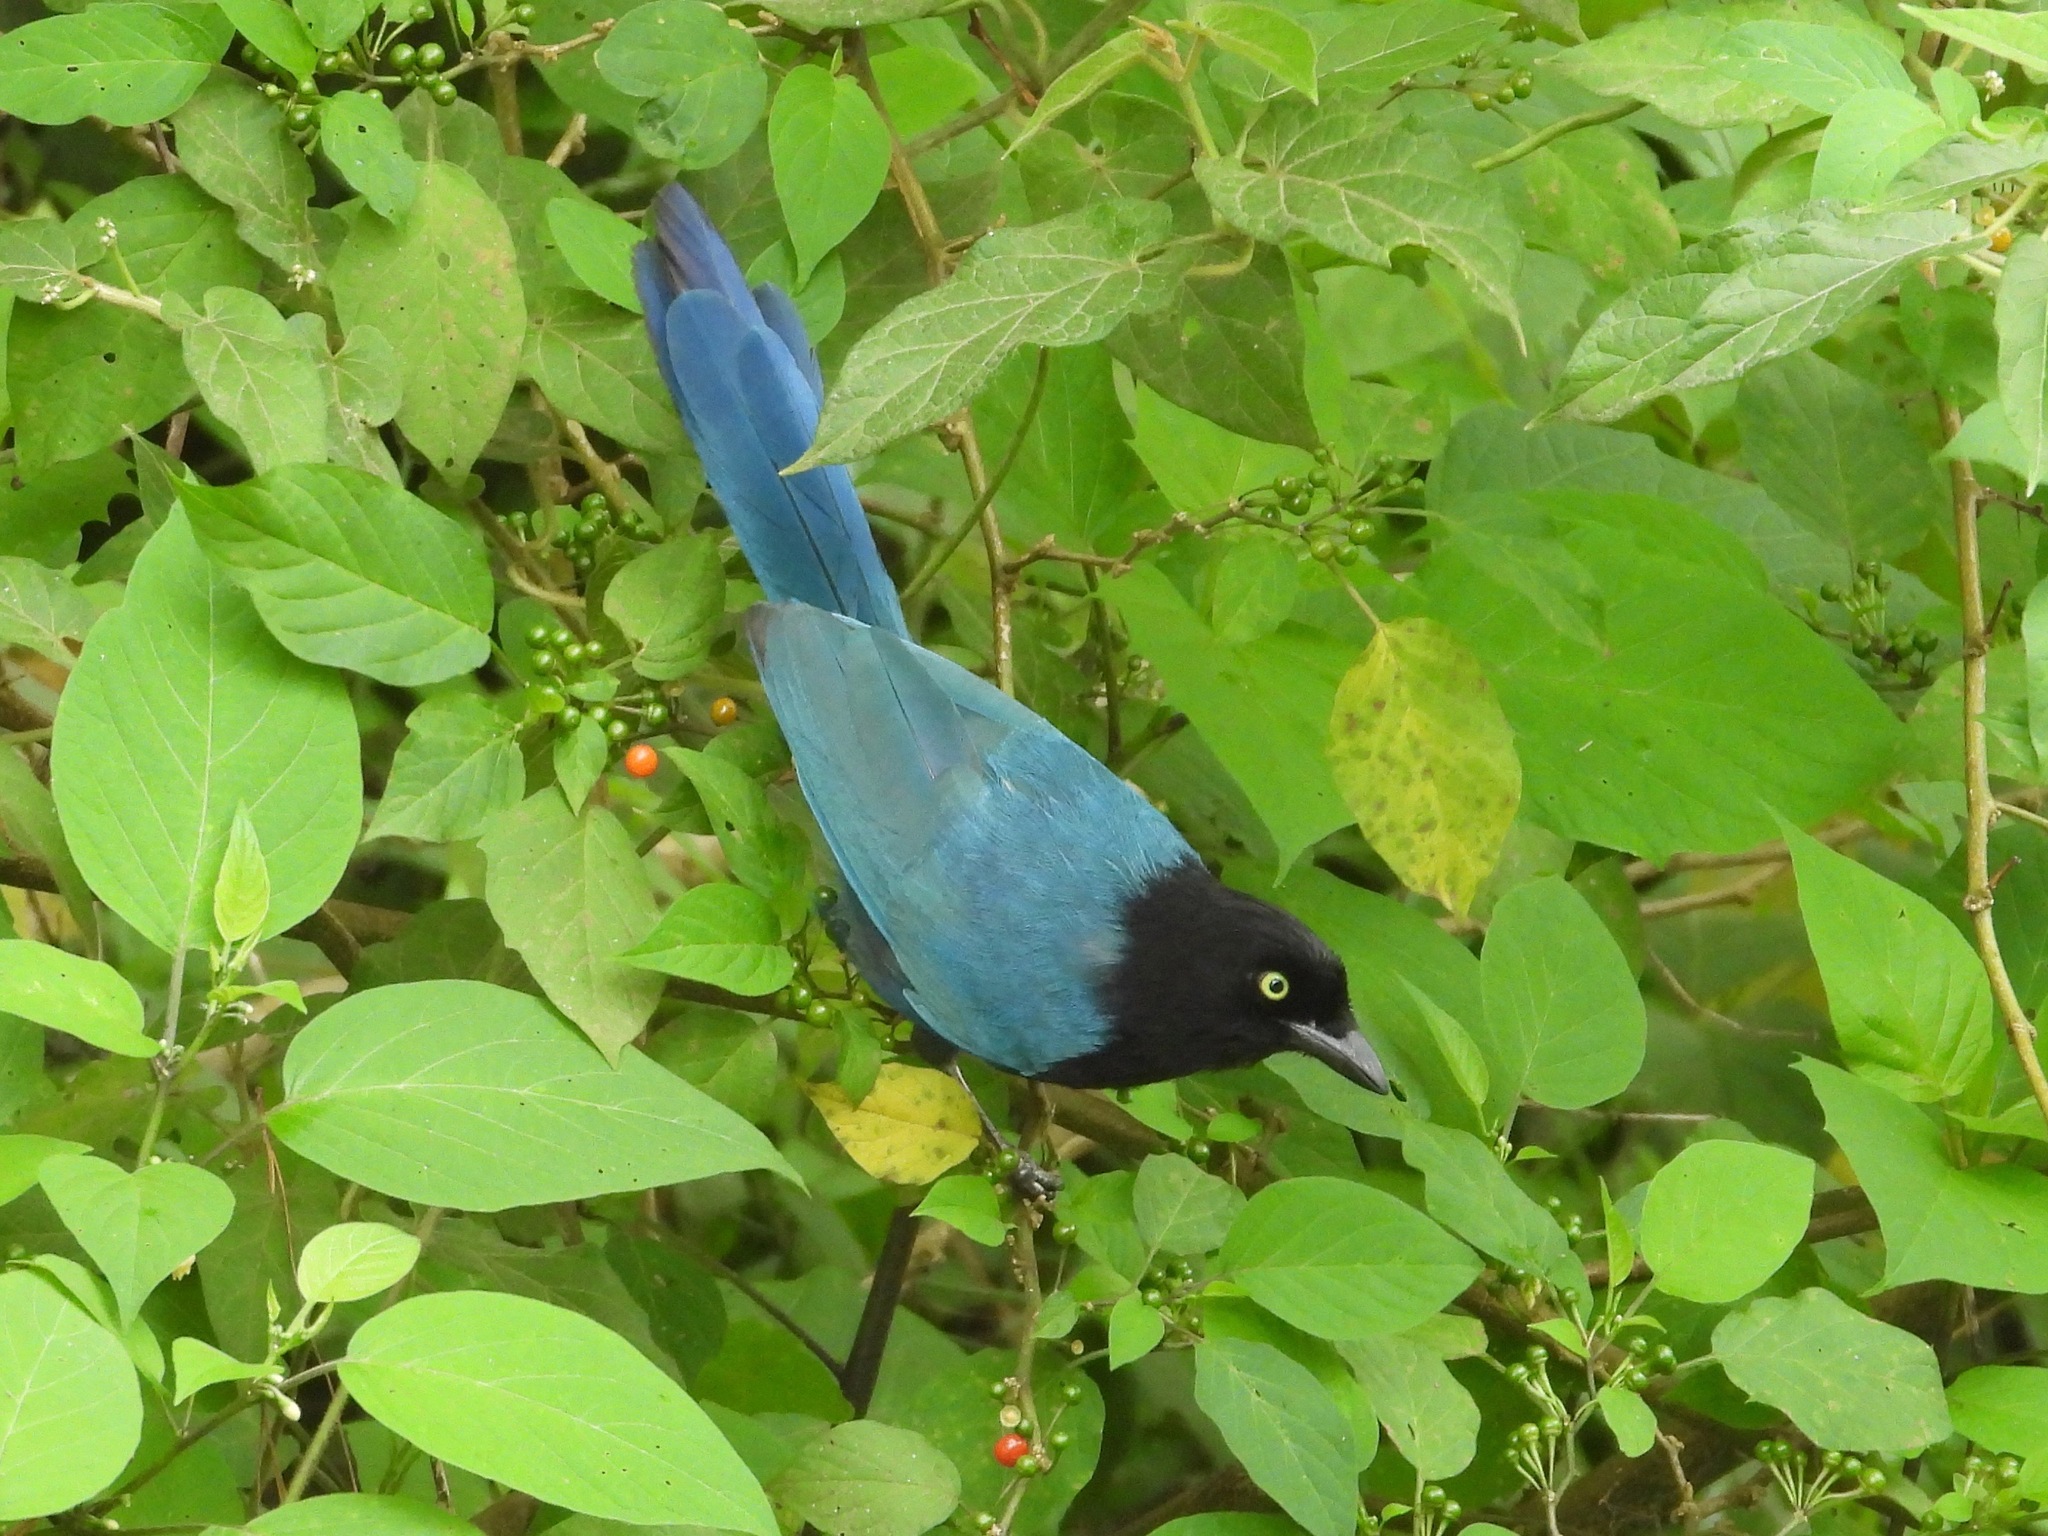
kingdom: Animalia
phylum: Chordata
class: Aves
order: Passeriformes
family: Corvidae
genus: Cyanocorax
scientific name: Cyanocorax melanocyaneus
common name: Bushy-crested jay
